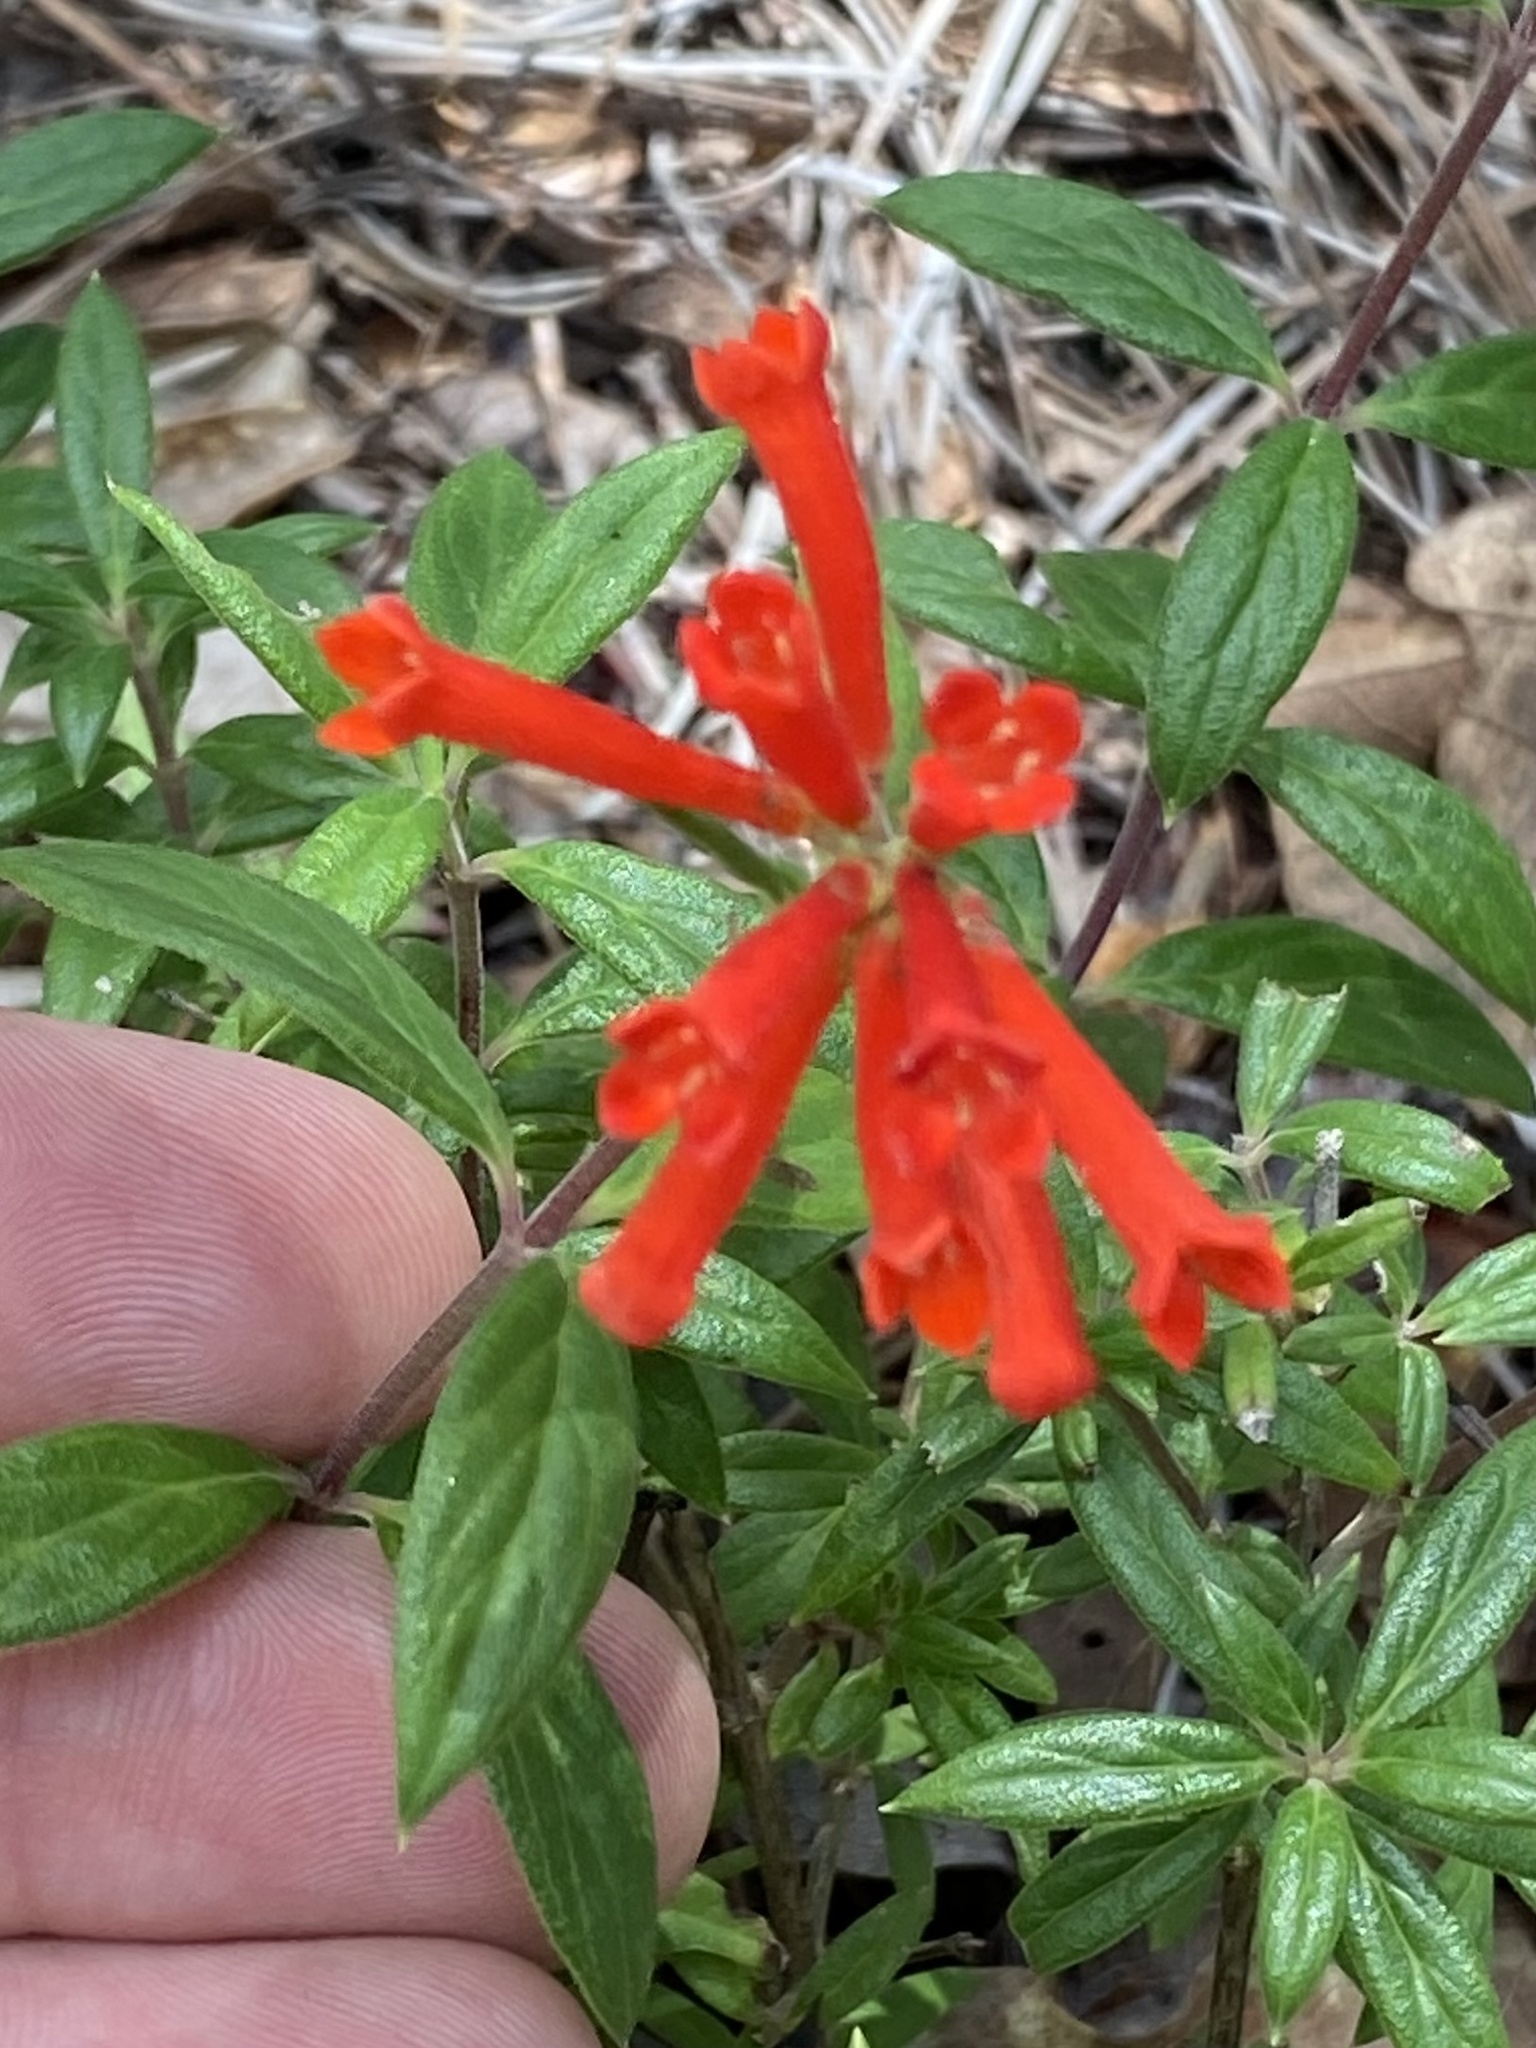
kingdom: Plantae
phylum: Tracheophyta
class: Magnoliopsida
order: Gentianales
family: Rubiaceae
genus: Bouvardia
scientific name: Bouvardia ternifolia
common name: Scarlet bouvardia
